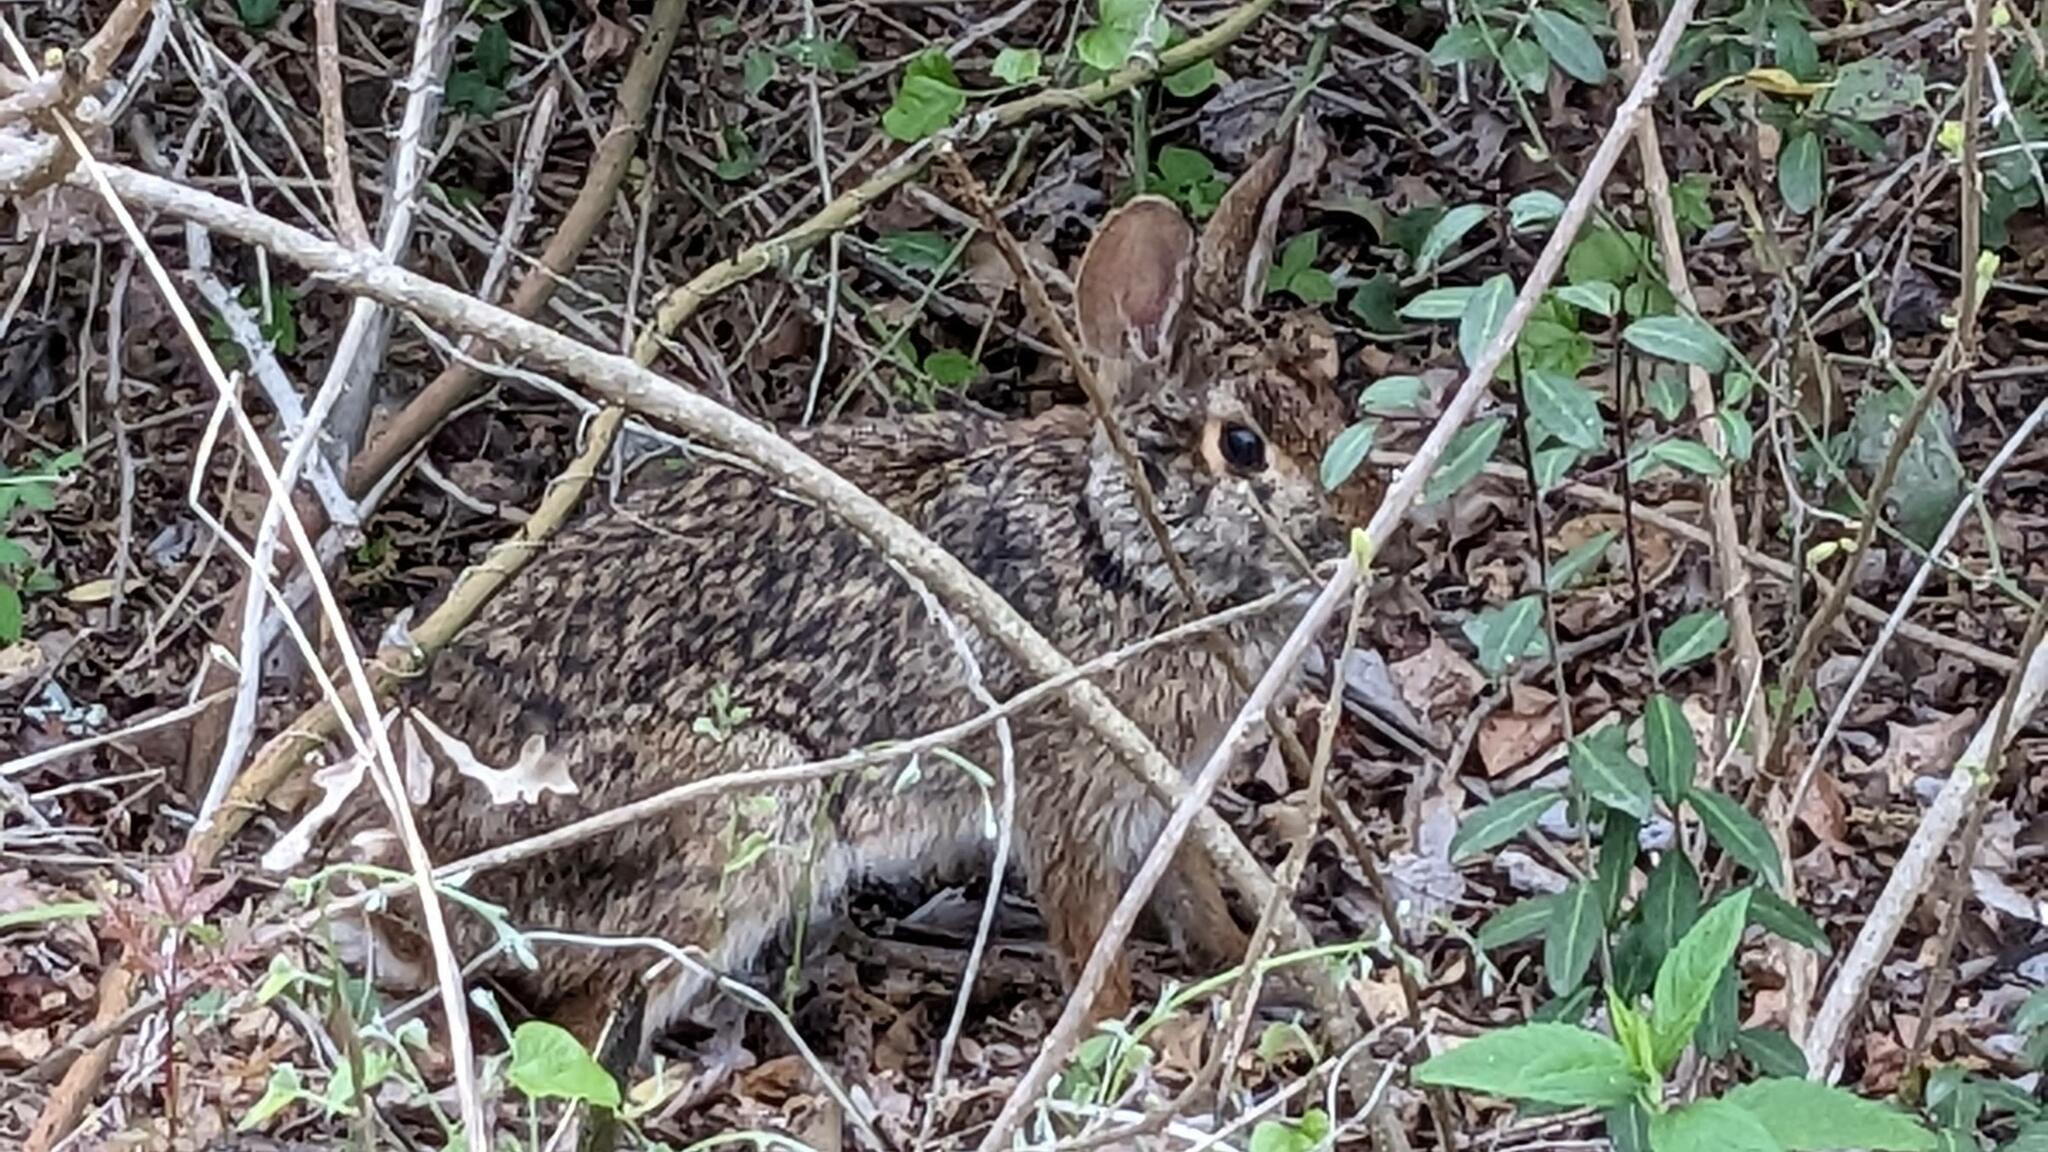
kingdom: Animalia
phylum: Chordata
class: Mammalia
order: Lagomorpha
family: Leporidae
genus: Sylvilagus
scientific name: Sylvilagus floridanus
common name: Eastern cottontail
